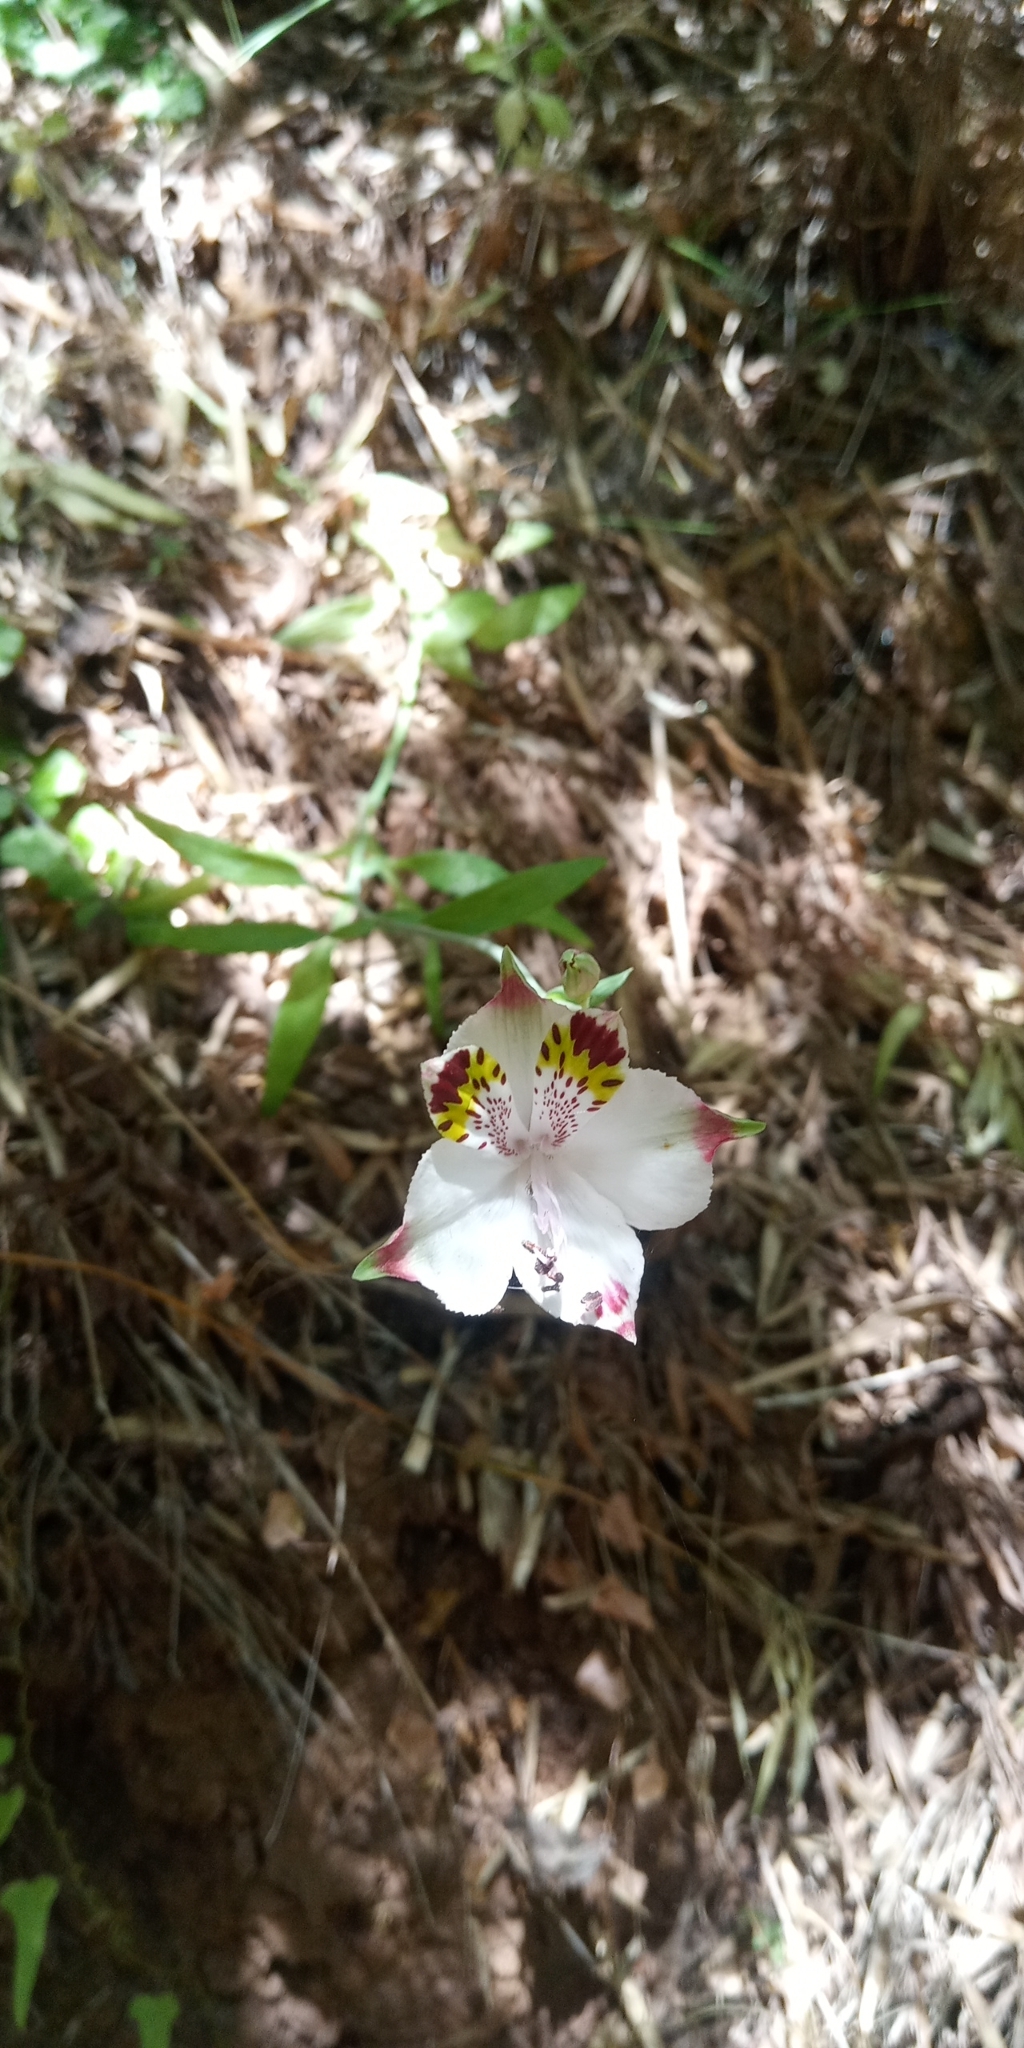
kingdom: Plantae
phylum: Tracheophyta
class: Liliopsida
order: Liliales
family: Alstroemeriaceae
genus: Alstroemeria
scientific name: Alstroemeria pulchra
